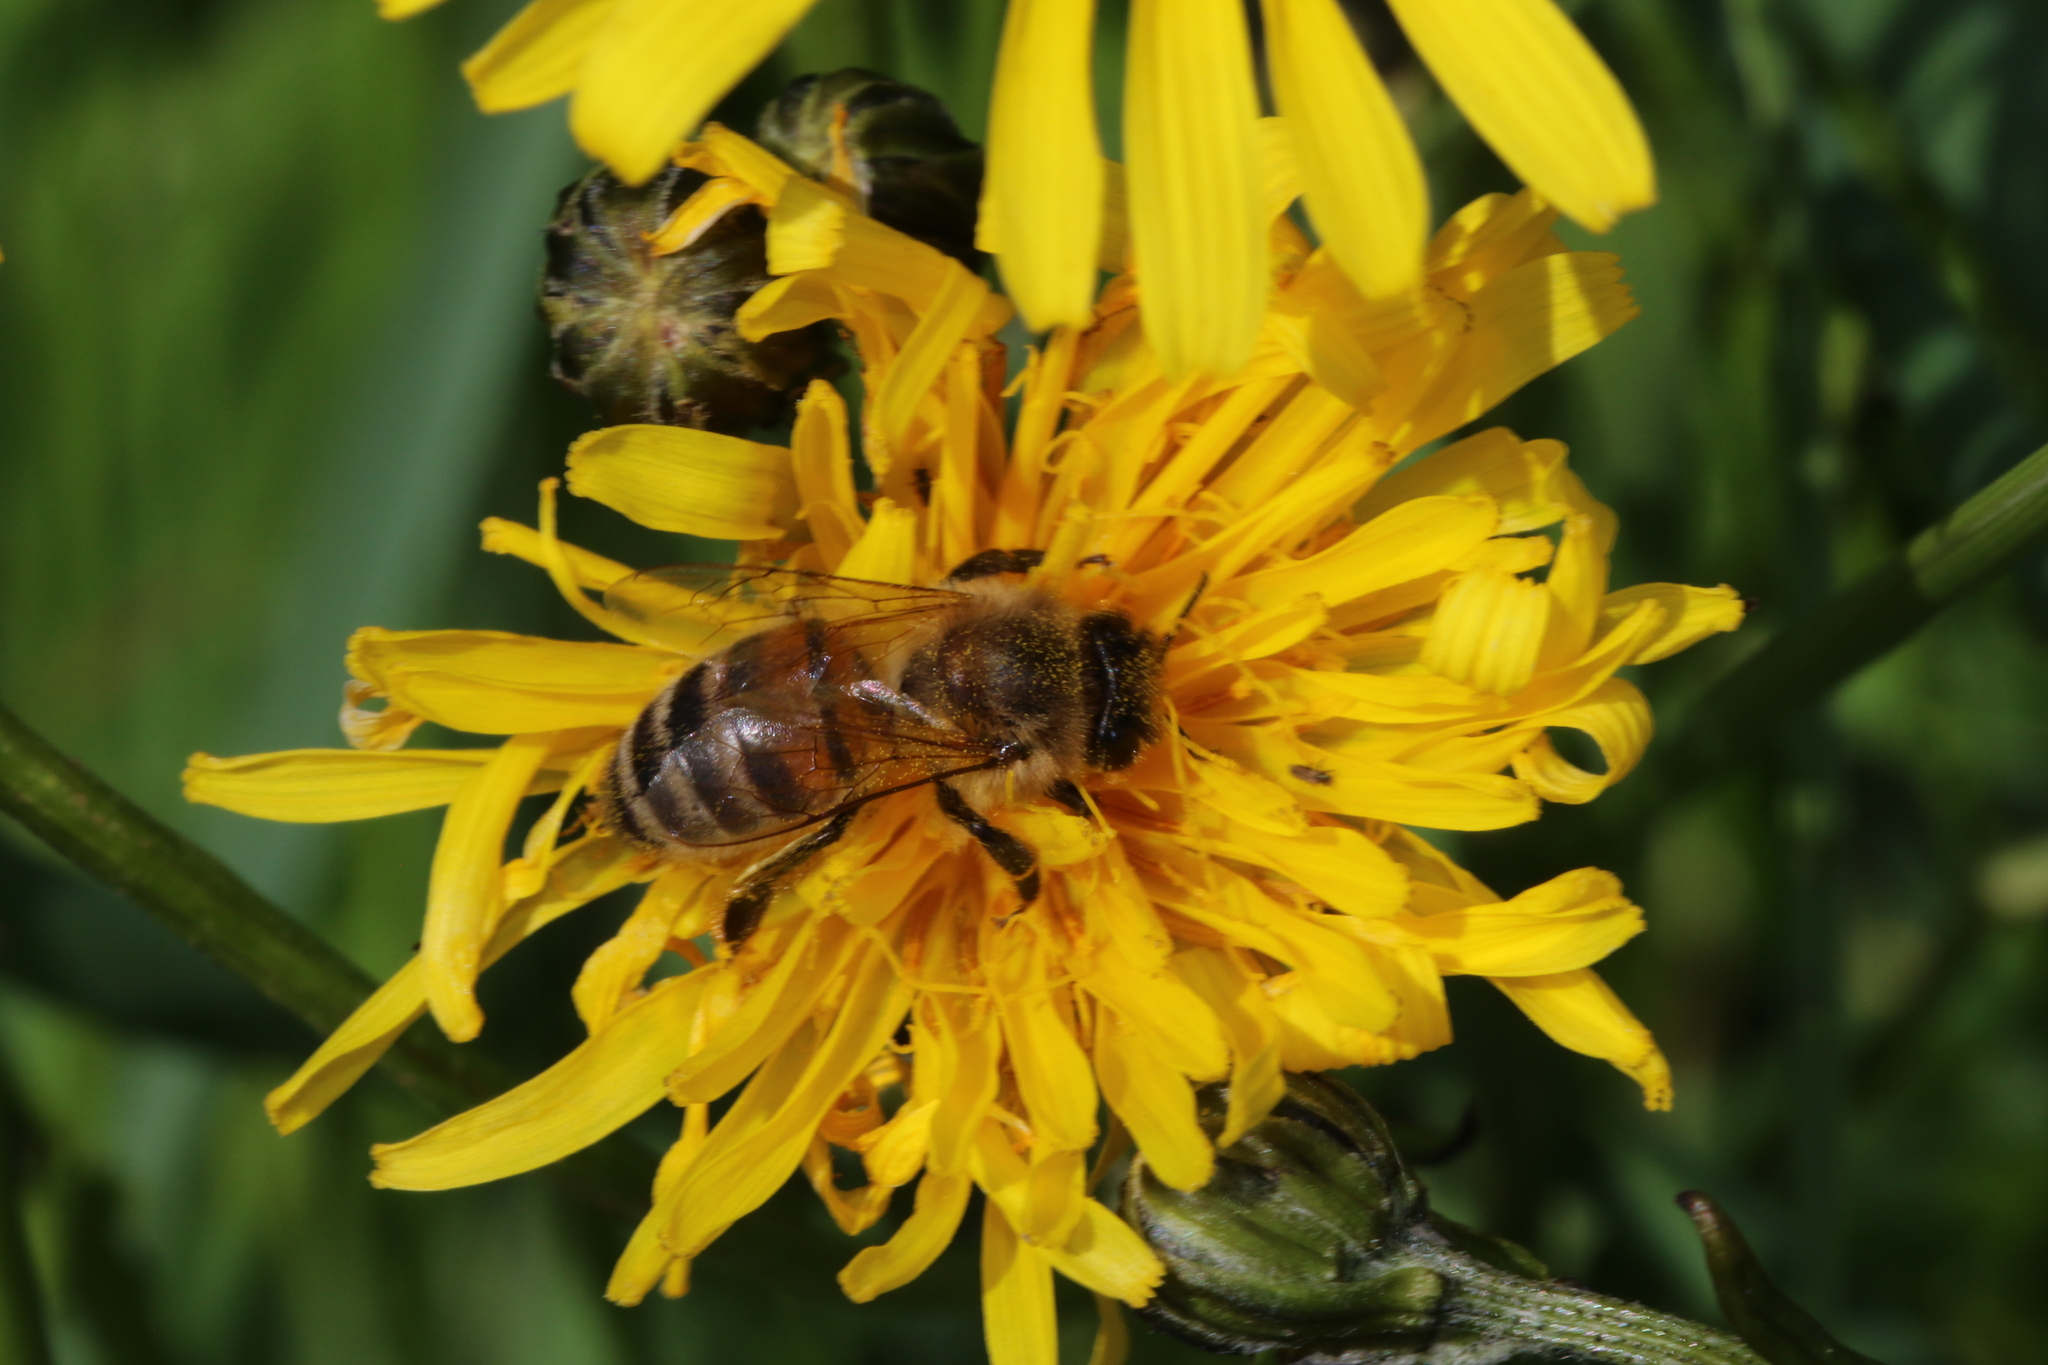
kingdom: Animalia
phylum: Arthropoda
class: Insecta
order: Hymenoptera
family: Apidae
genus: Apis
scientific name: Apis mellifera
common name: Honey bee
